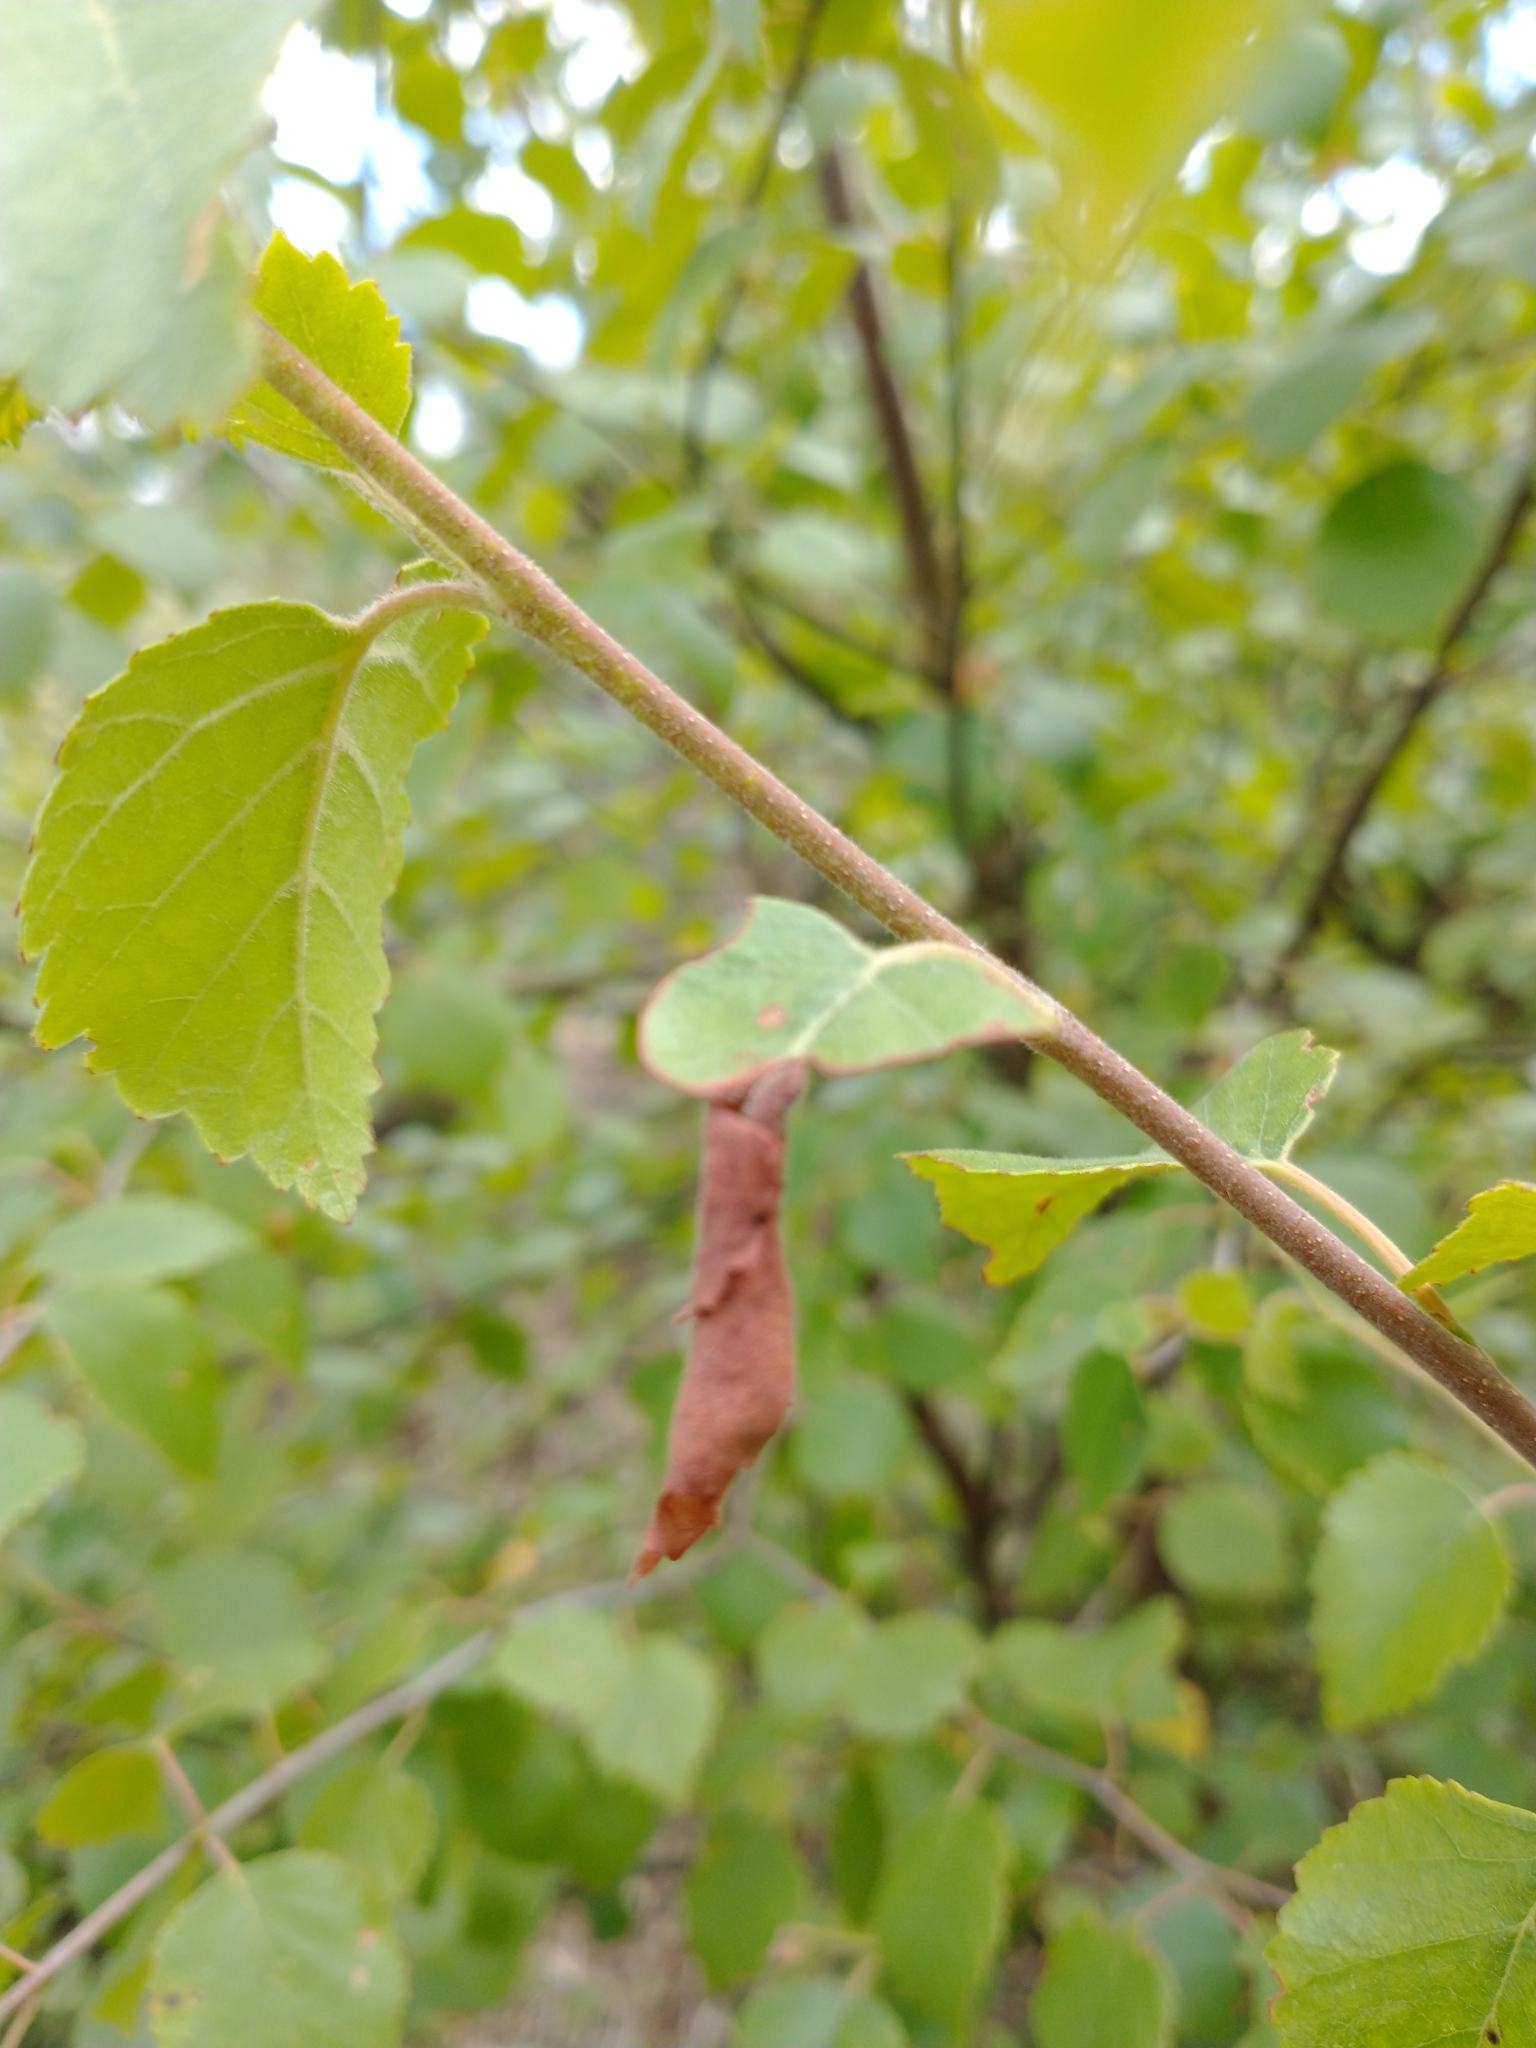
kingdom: Animalia
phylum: Arthropoda
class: Insecta
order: Coleoptera
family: Attelabidae
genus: Deporaus
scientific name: Deporaus betulae
